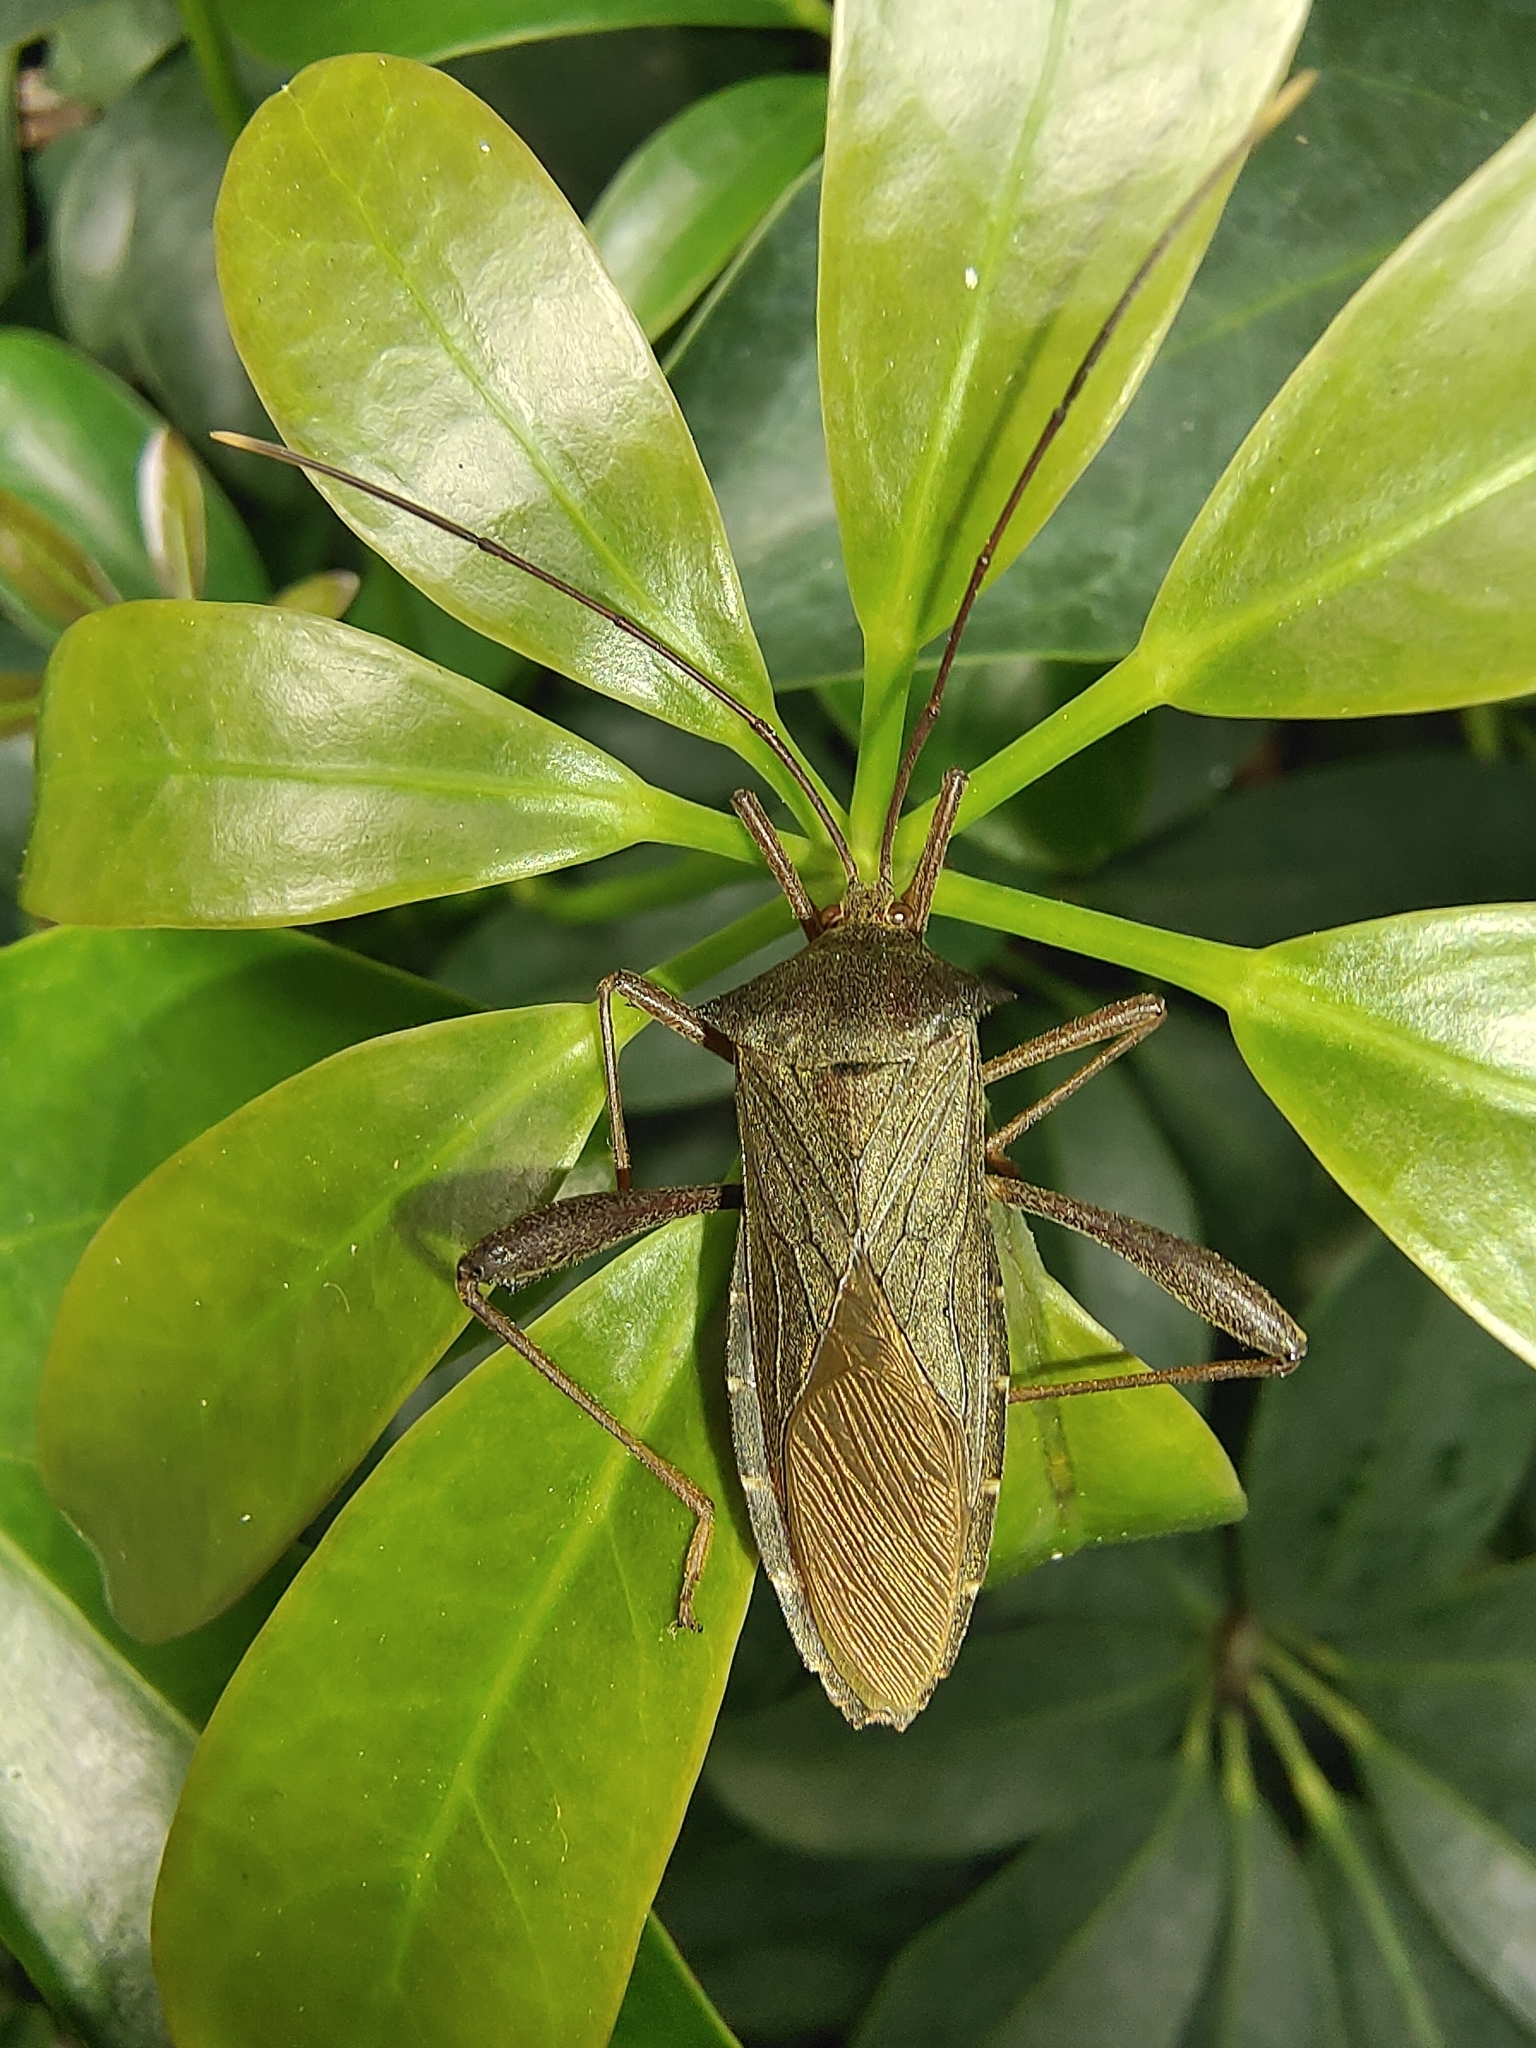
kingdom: Animalia
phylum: Arthropoda
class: Insecta
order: Hemiptera
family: Coreidae
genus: Mictis
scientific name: Mictis longicornis
